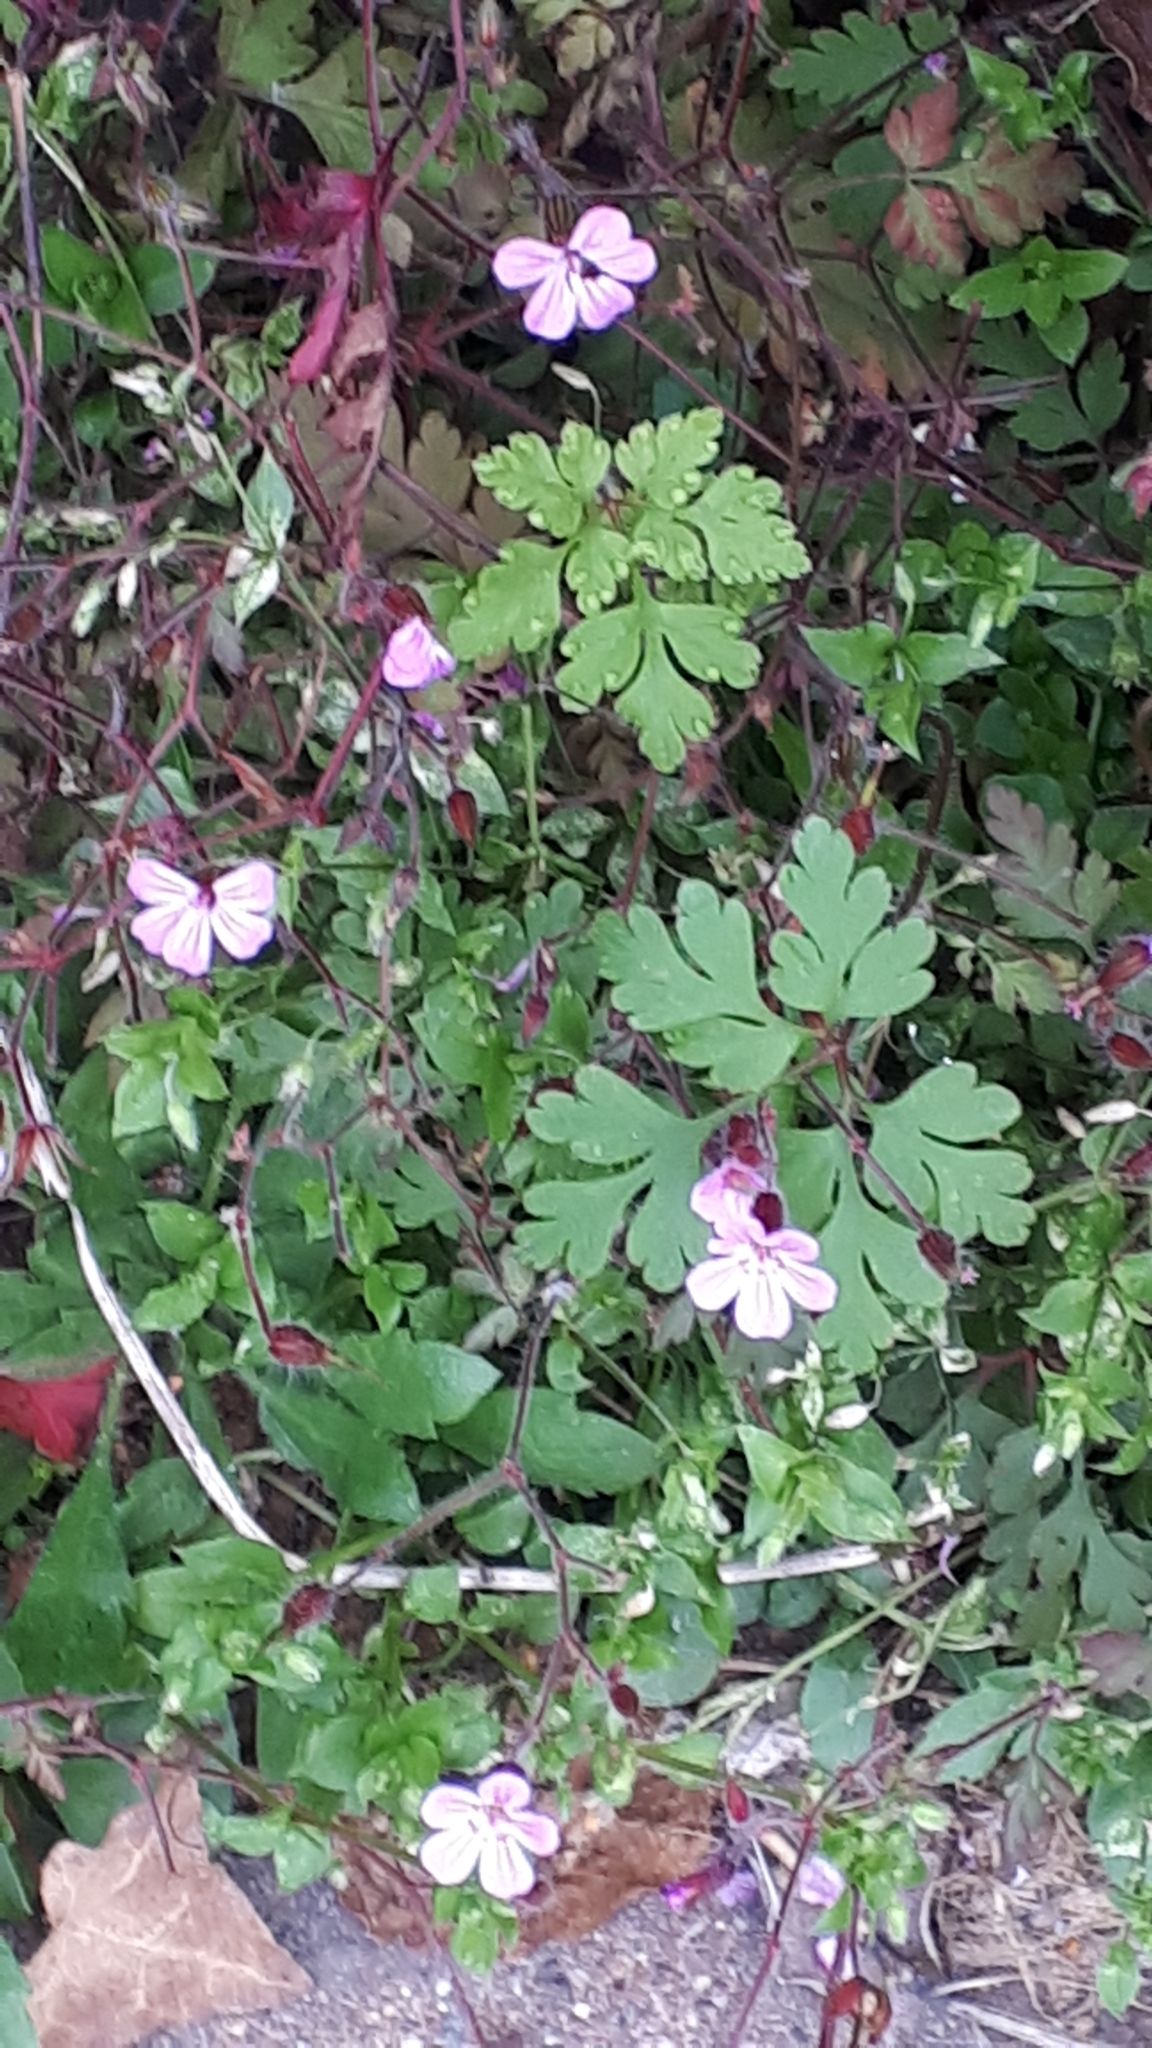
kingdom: Plantae
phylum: Tracheophyta
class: Magnoliopsida
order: Geraniales
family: Geraniaceae
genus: Geranium
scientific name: Geranium robertianum
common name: Herb-robert
